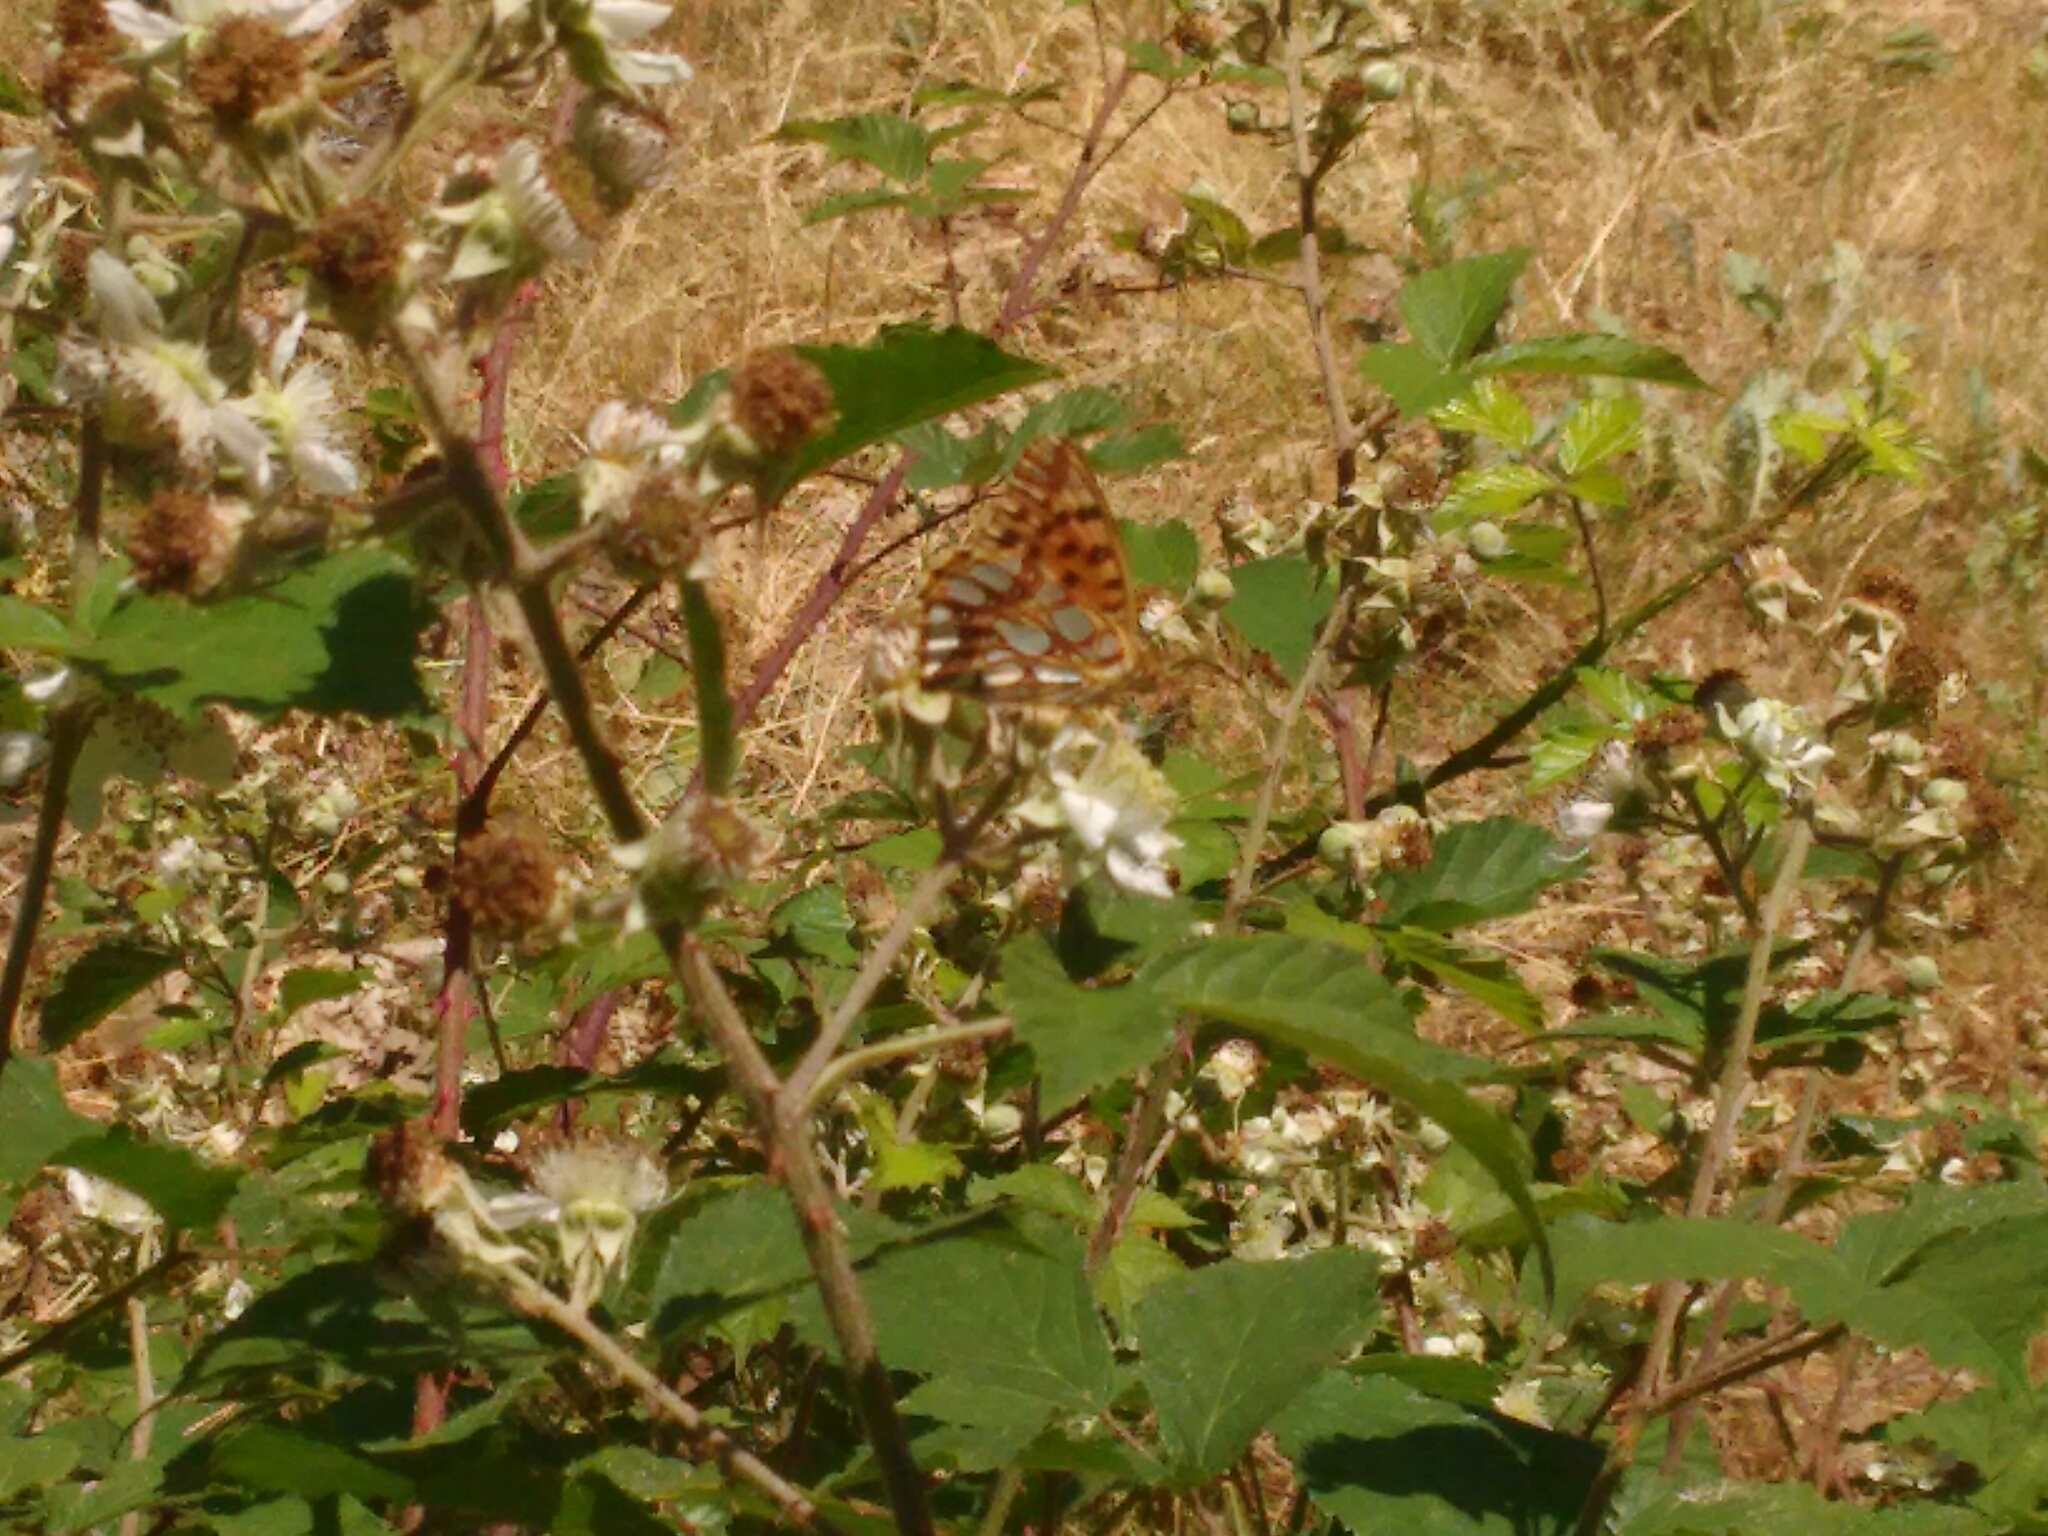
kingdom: Animalia
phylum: Arthropoda
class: Insecta
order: Lepidoptera
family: Nymphalidae
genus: Issoria
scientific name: Issoria lathonia
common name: Queen of spain fritillary
